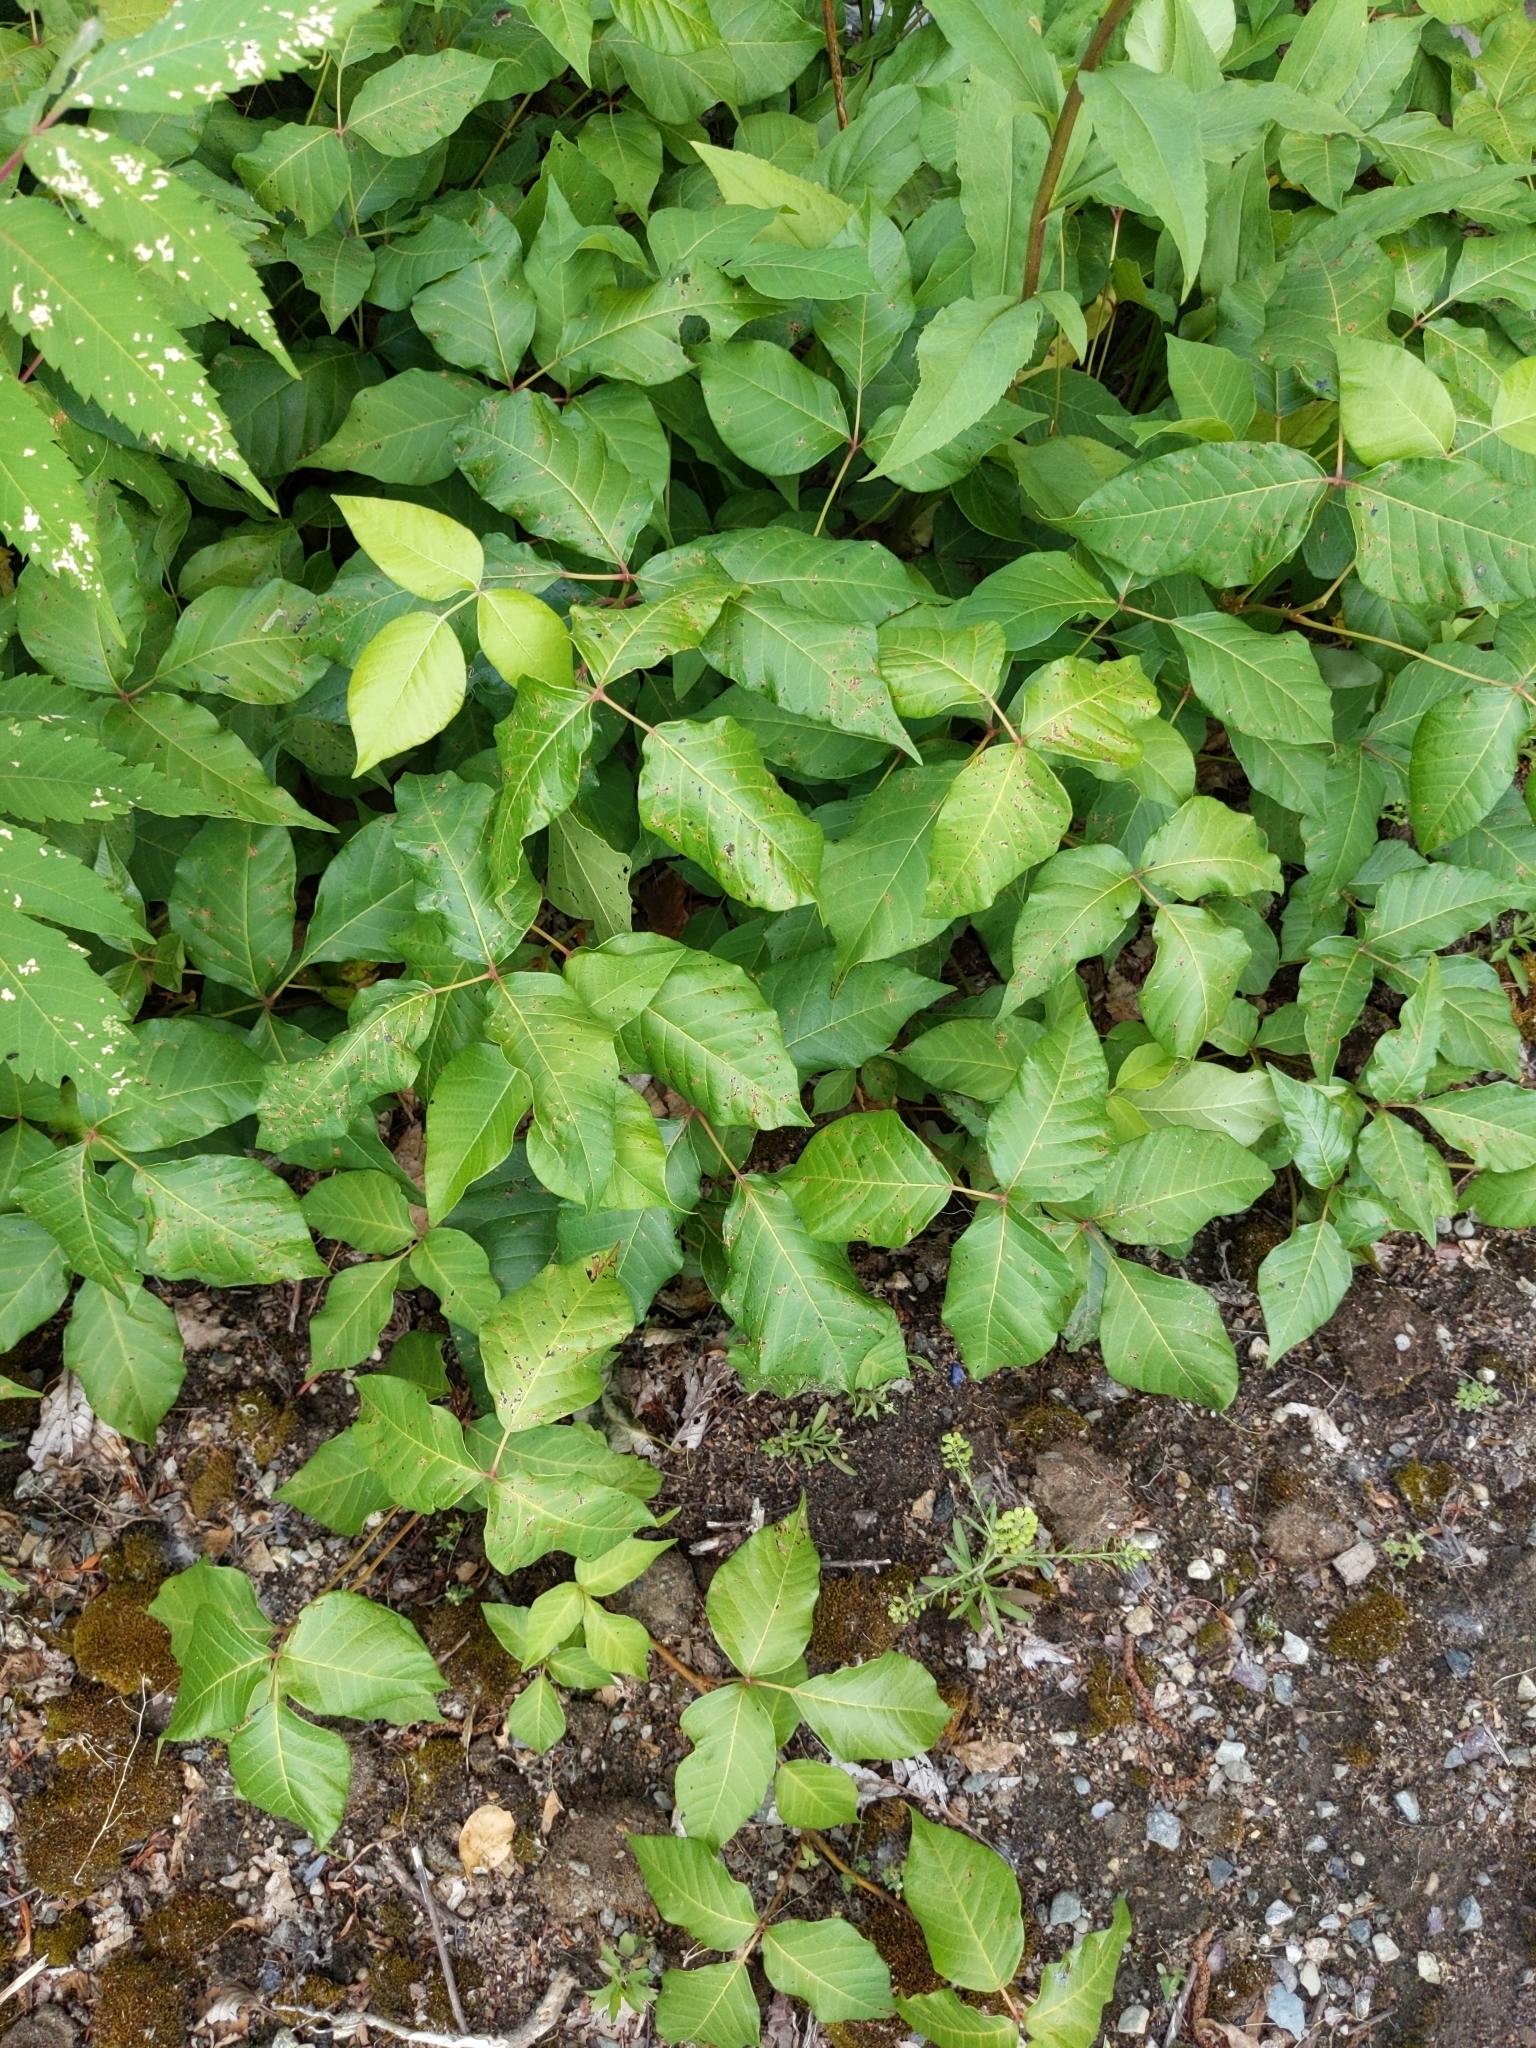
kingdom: Plantae
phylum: Tracheophyta
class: Magnoliopsida
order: Sapindales
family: Anacardiaceae
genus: Toxicodendron
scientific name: Toxicodendron radicans
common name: Poison ivy
